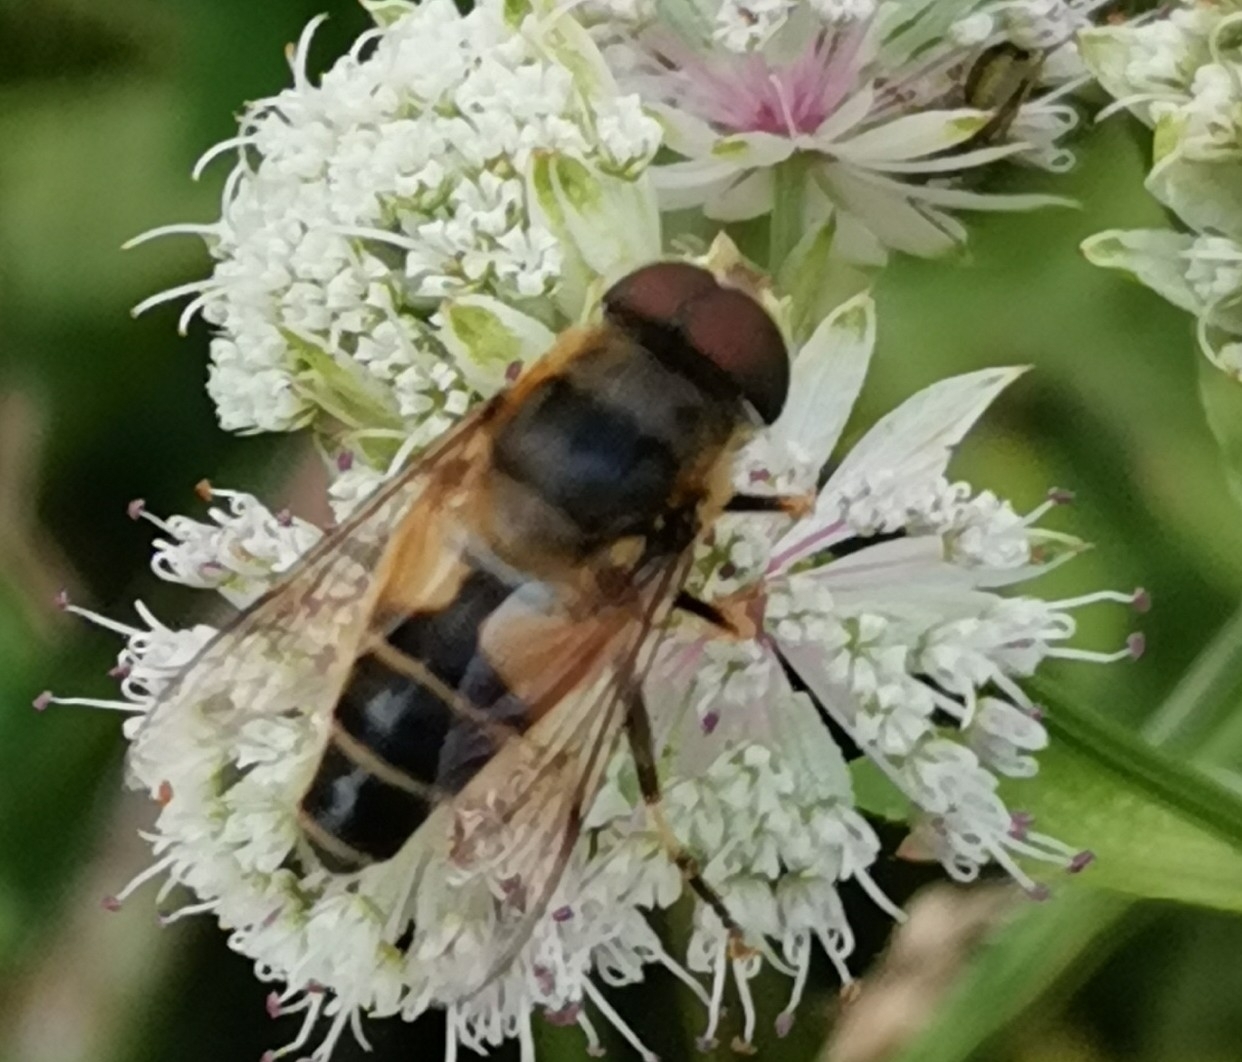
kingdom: Animalia
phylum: Arthropoda
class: Insecta
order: Diptera
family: Syrphidae
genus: Eristalis
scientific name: Eristalis pertinax
